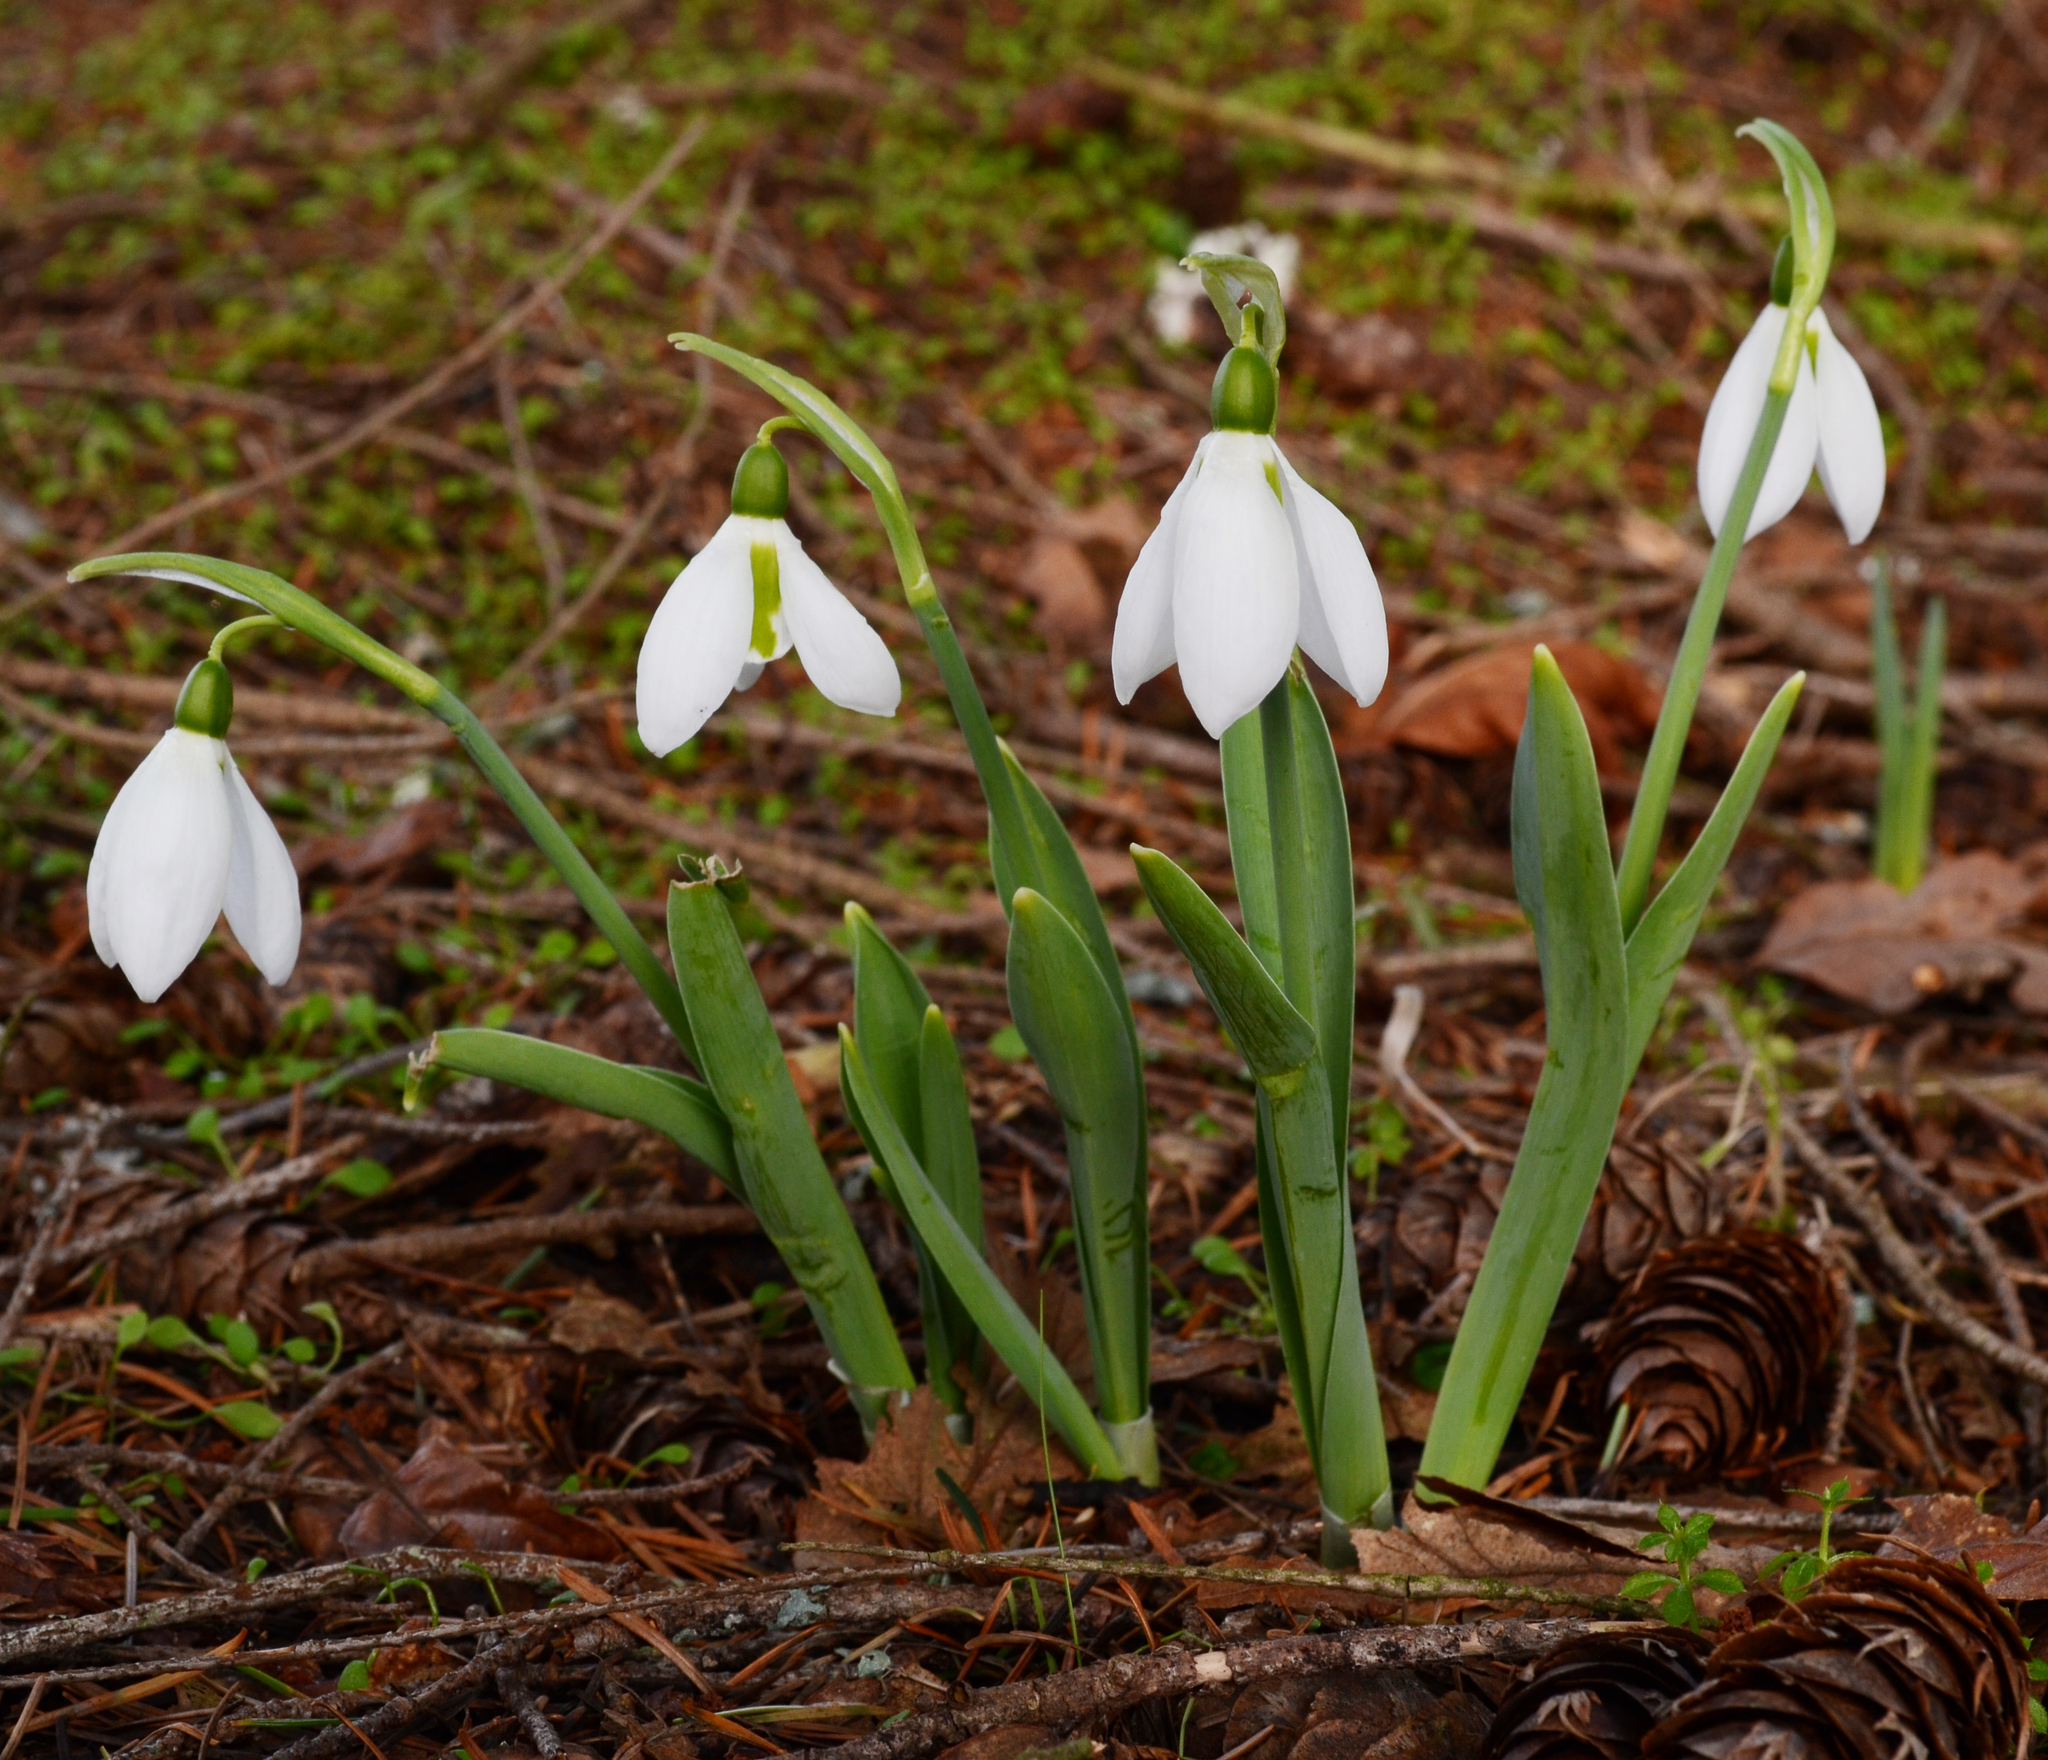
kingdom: Plantae
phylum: Tracheophyta
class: Liliopsida
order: Asparagales
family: Amaryllidaceae
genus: Galanthus
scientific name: Galanthus elwesii
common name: Greater snowdrop
